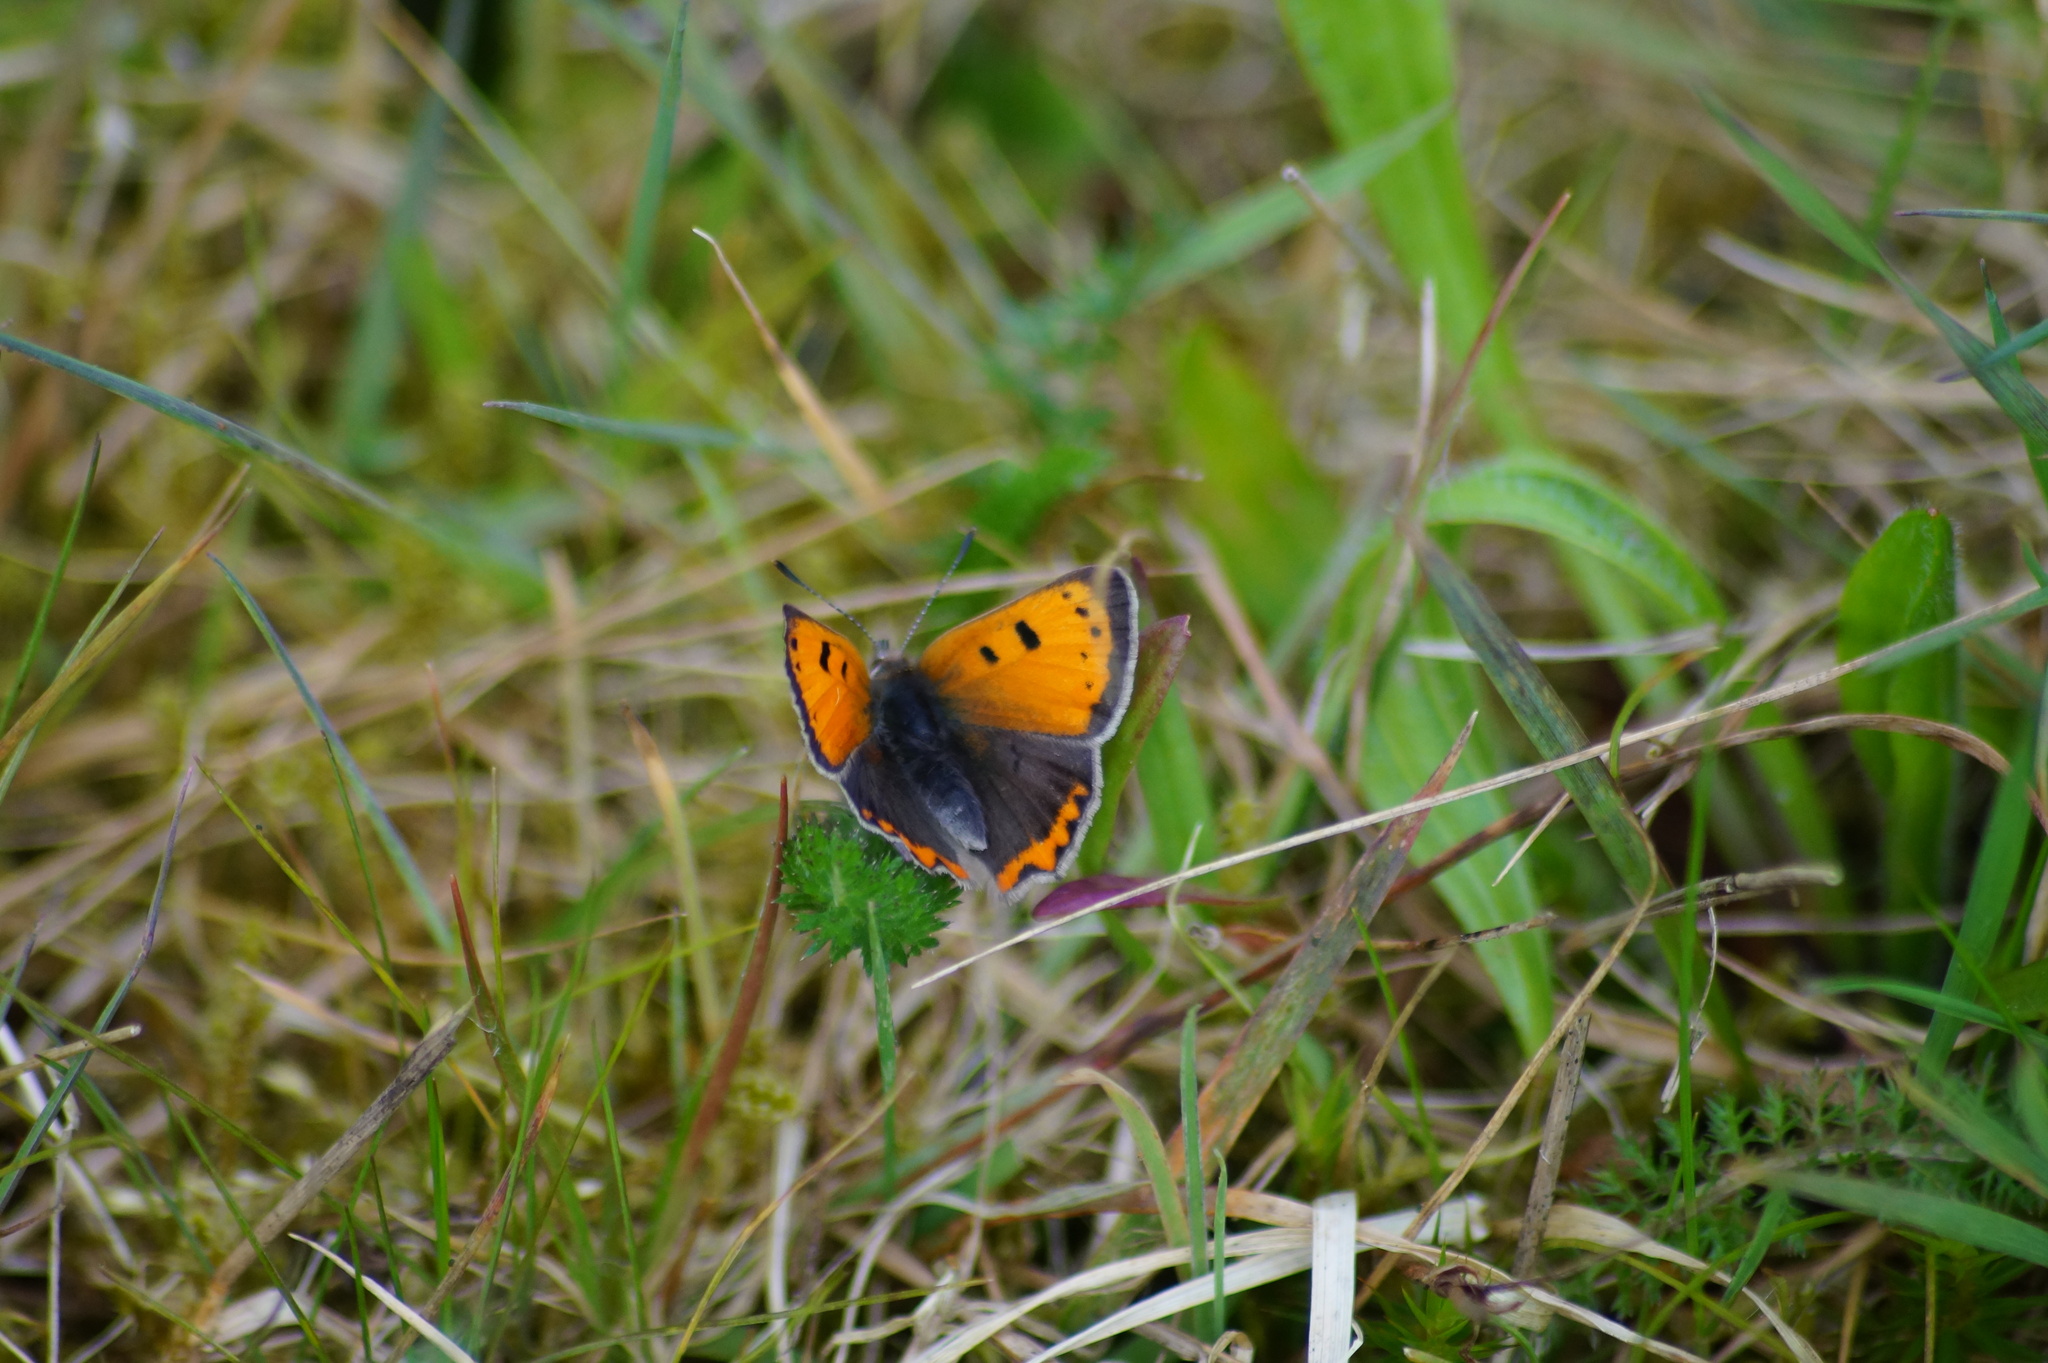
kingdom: Animalia
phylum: Arthropoda
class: Insecta
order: Lepidoptera
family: Lycaenidae
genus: Lycaena
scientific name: Lycaena phlaeas
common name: Small copper
